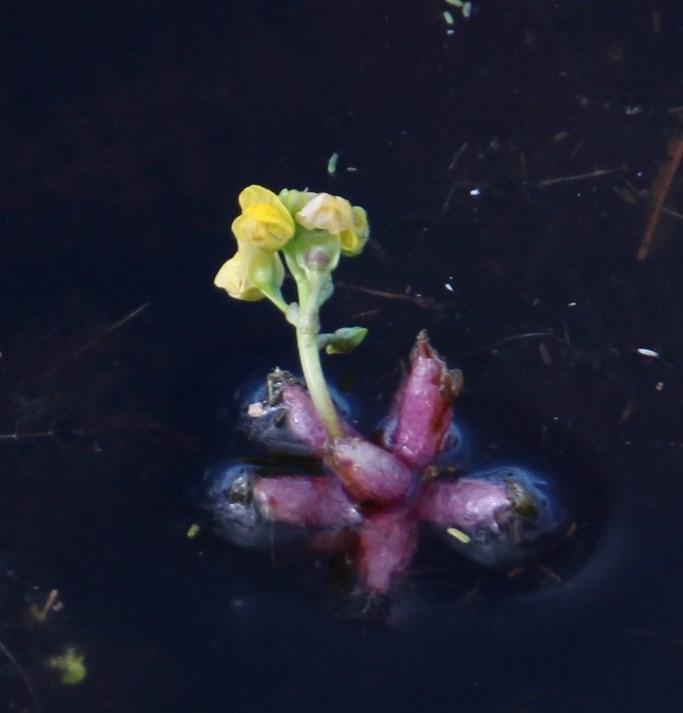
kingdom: Plantae
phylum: Tracheophyta
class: Magnoliopsida
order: Lamiales
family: Lentibulariaceae
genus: Utricularia
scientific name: Utricularia stellaris
